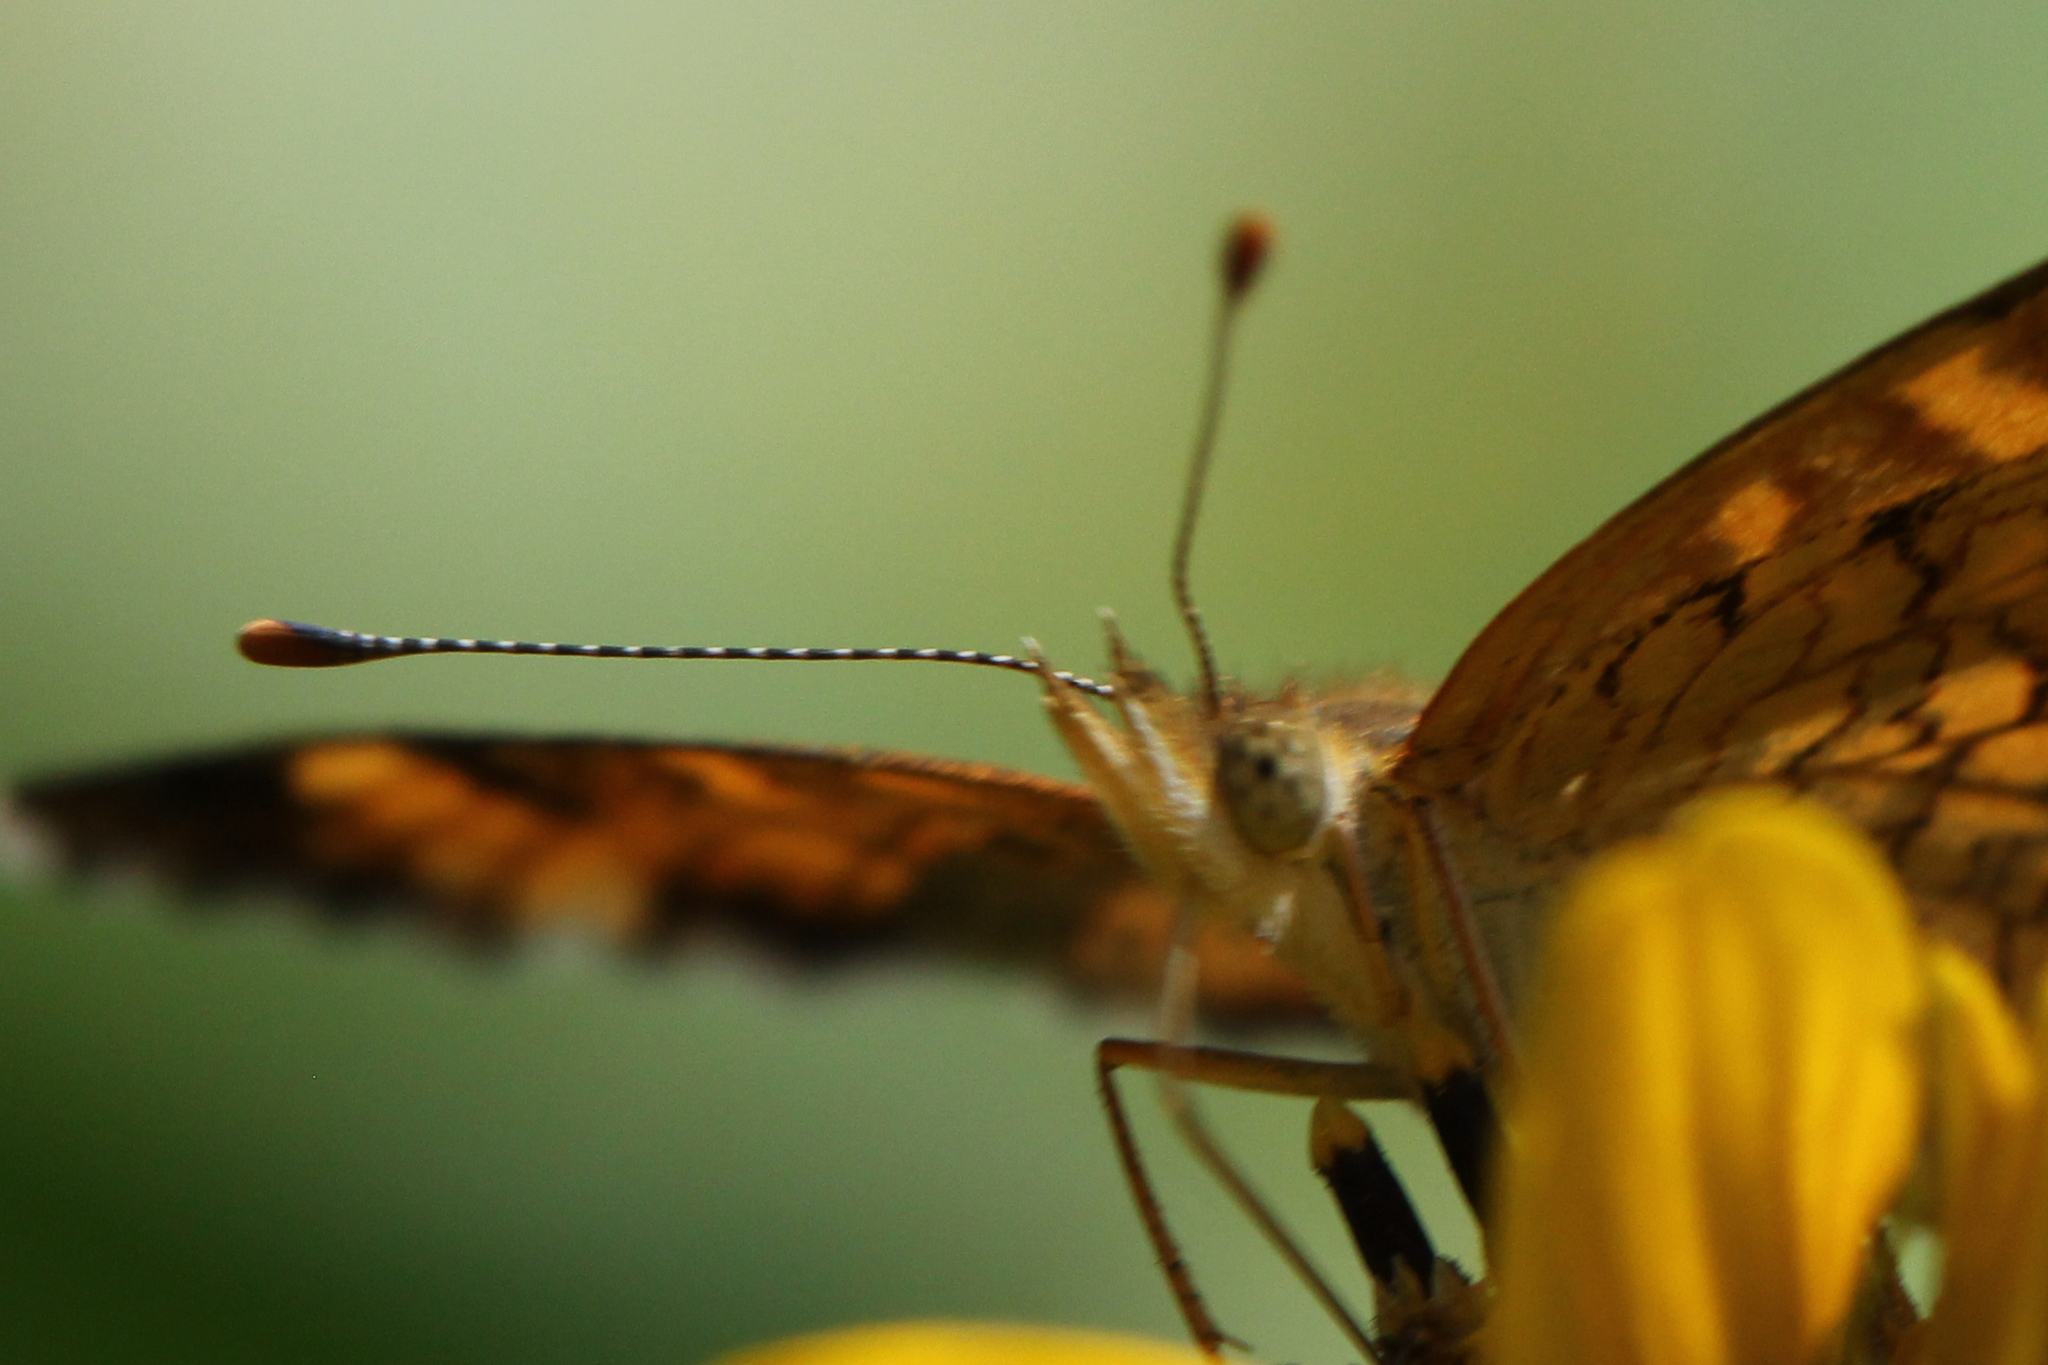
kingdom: Animalia
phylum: Arthropoda
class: Insecta
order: Lepidoptera
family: Nymphalidae
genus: Phyciodes
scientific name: Phyciodes tharos
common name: Pearl crescent
